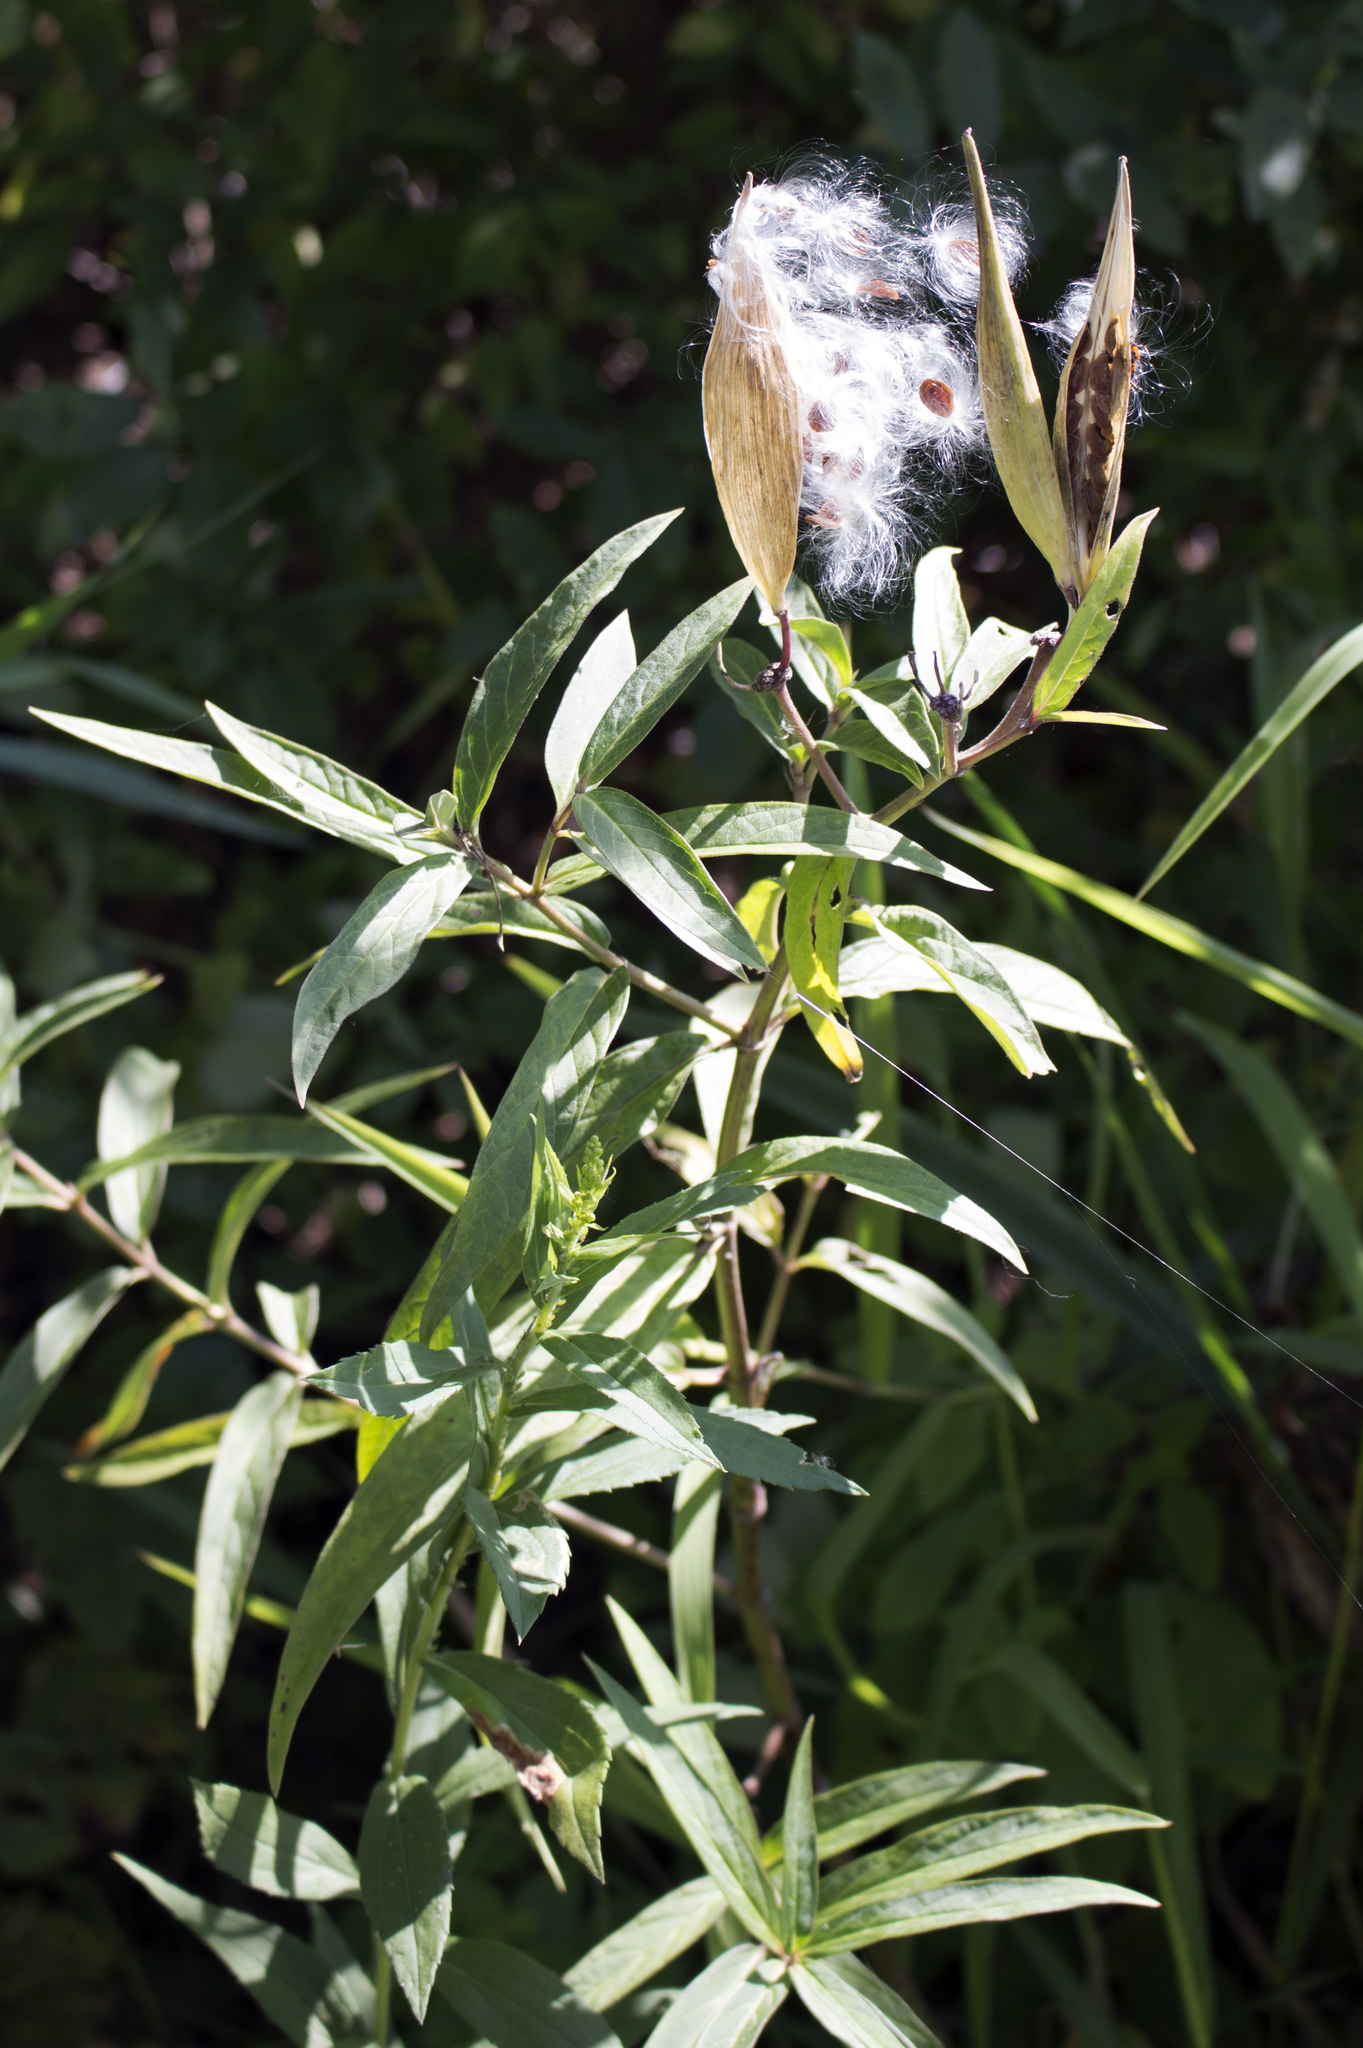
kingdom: Plantae
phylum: Tracheophyta
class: Magnoliopsida
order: Gentianales
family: Apocynaceae
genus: Asclepias
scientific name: Asclepias incarnata
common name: Swamp milkweed
